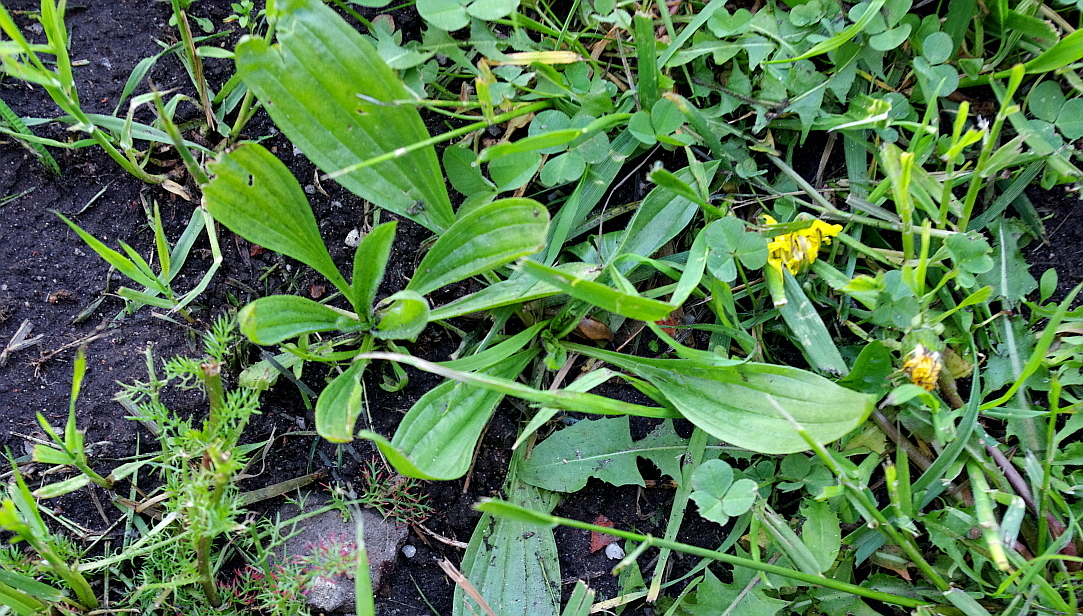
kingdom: Plantae
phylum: Tracheophyta
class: Magnoliopsida
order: Lamiales
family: Plantaginaceae
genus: Plantago
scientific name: Plantago lanceolata
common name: Ribwort plantain
